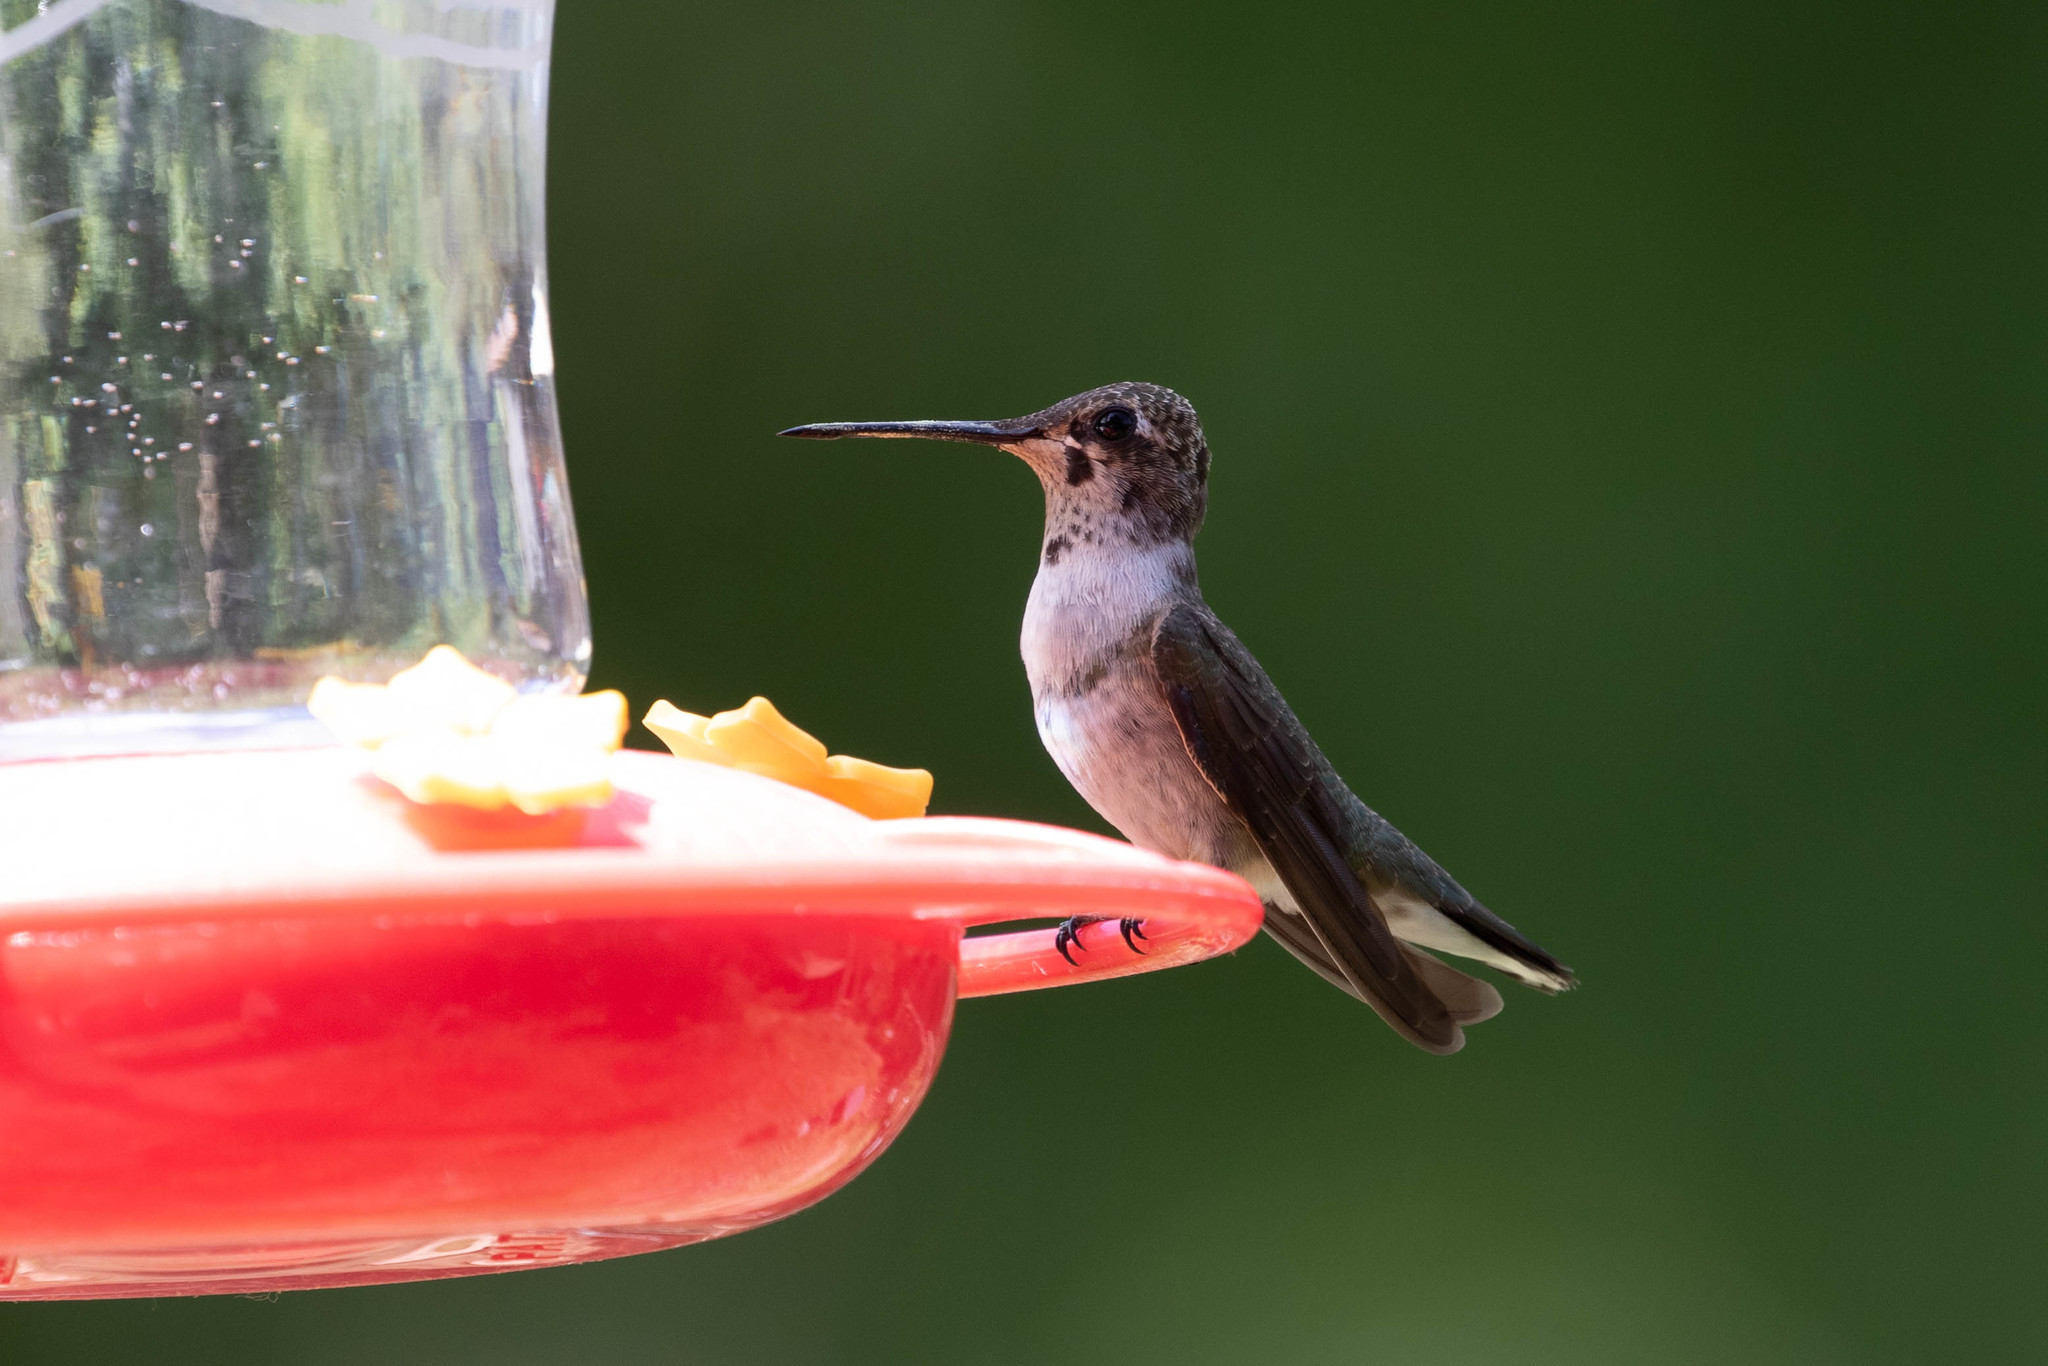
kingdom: Animalia
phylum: Chordata
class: Aves
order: Apodiformes
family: Trochilidae
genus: Archilochus
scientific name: Archilochus alexandri
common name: Black-chinned hummingbird
